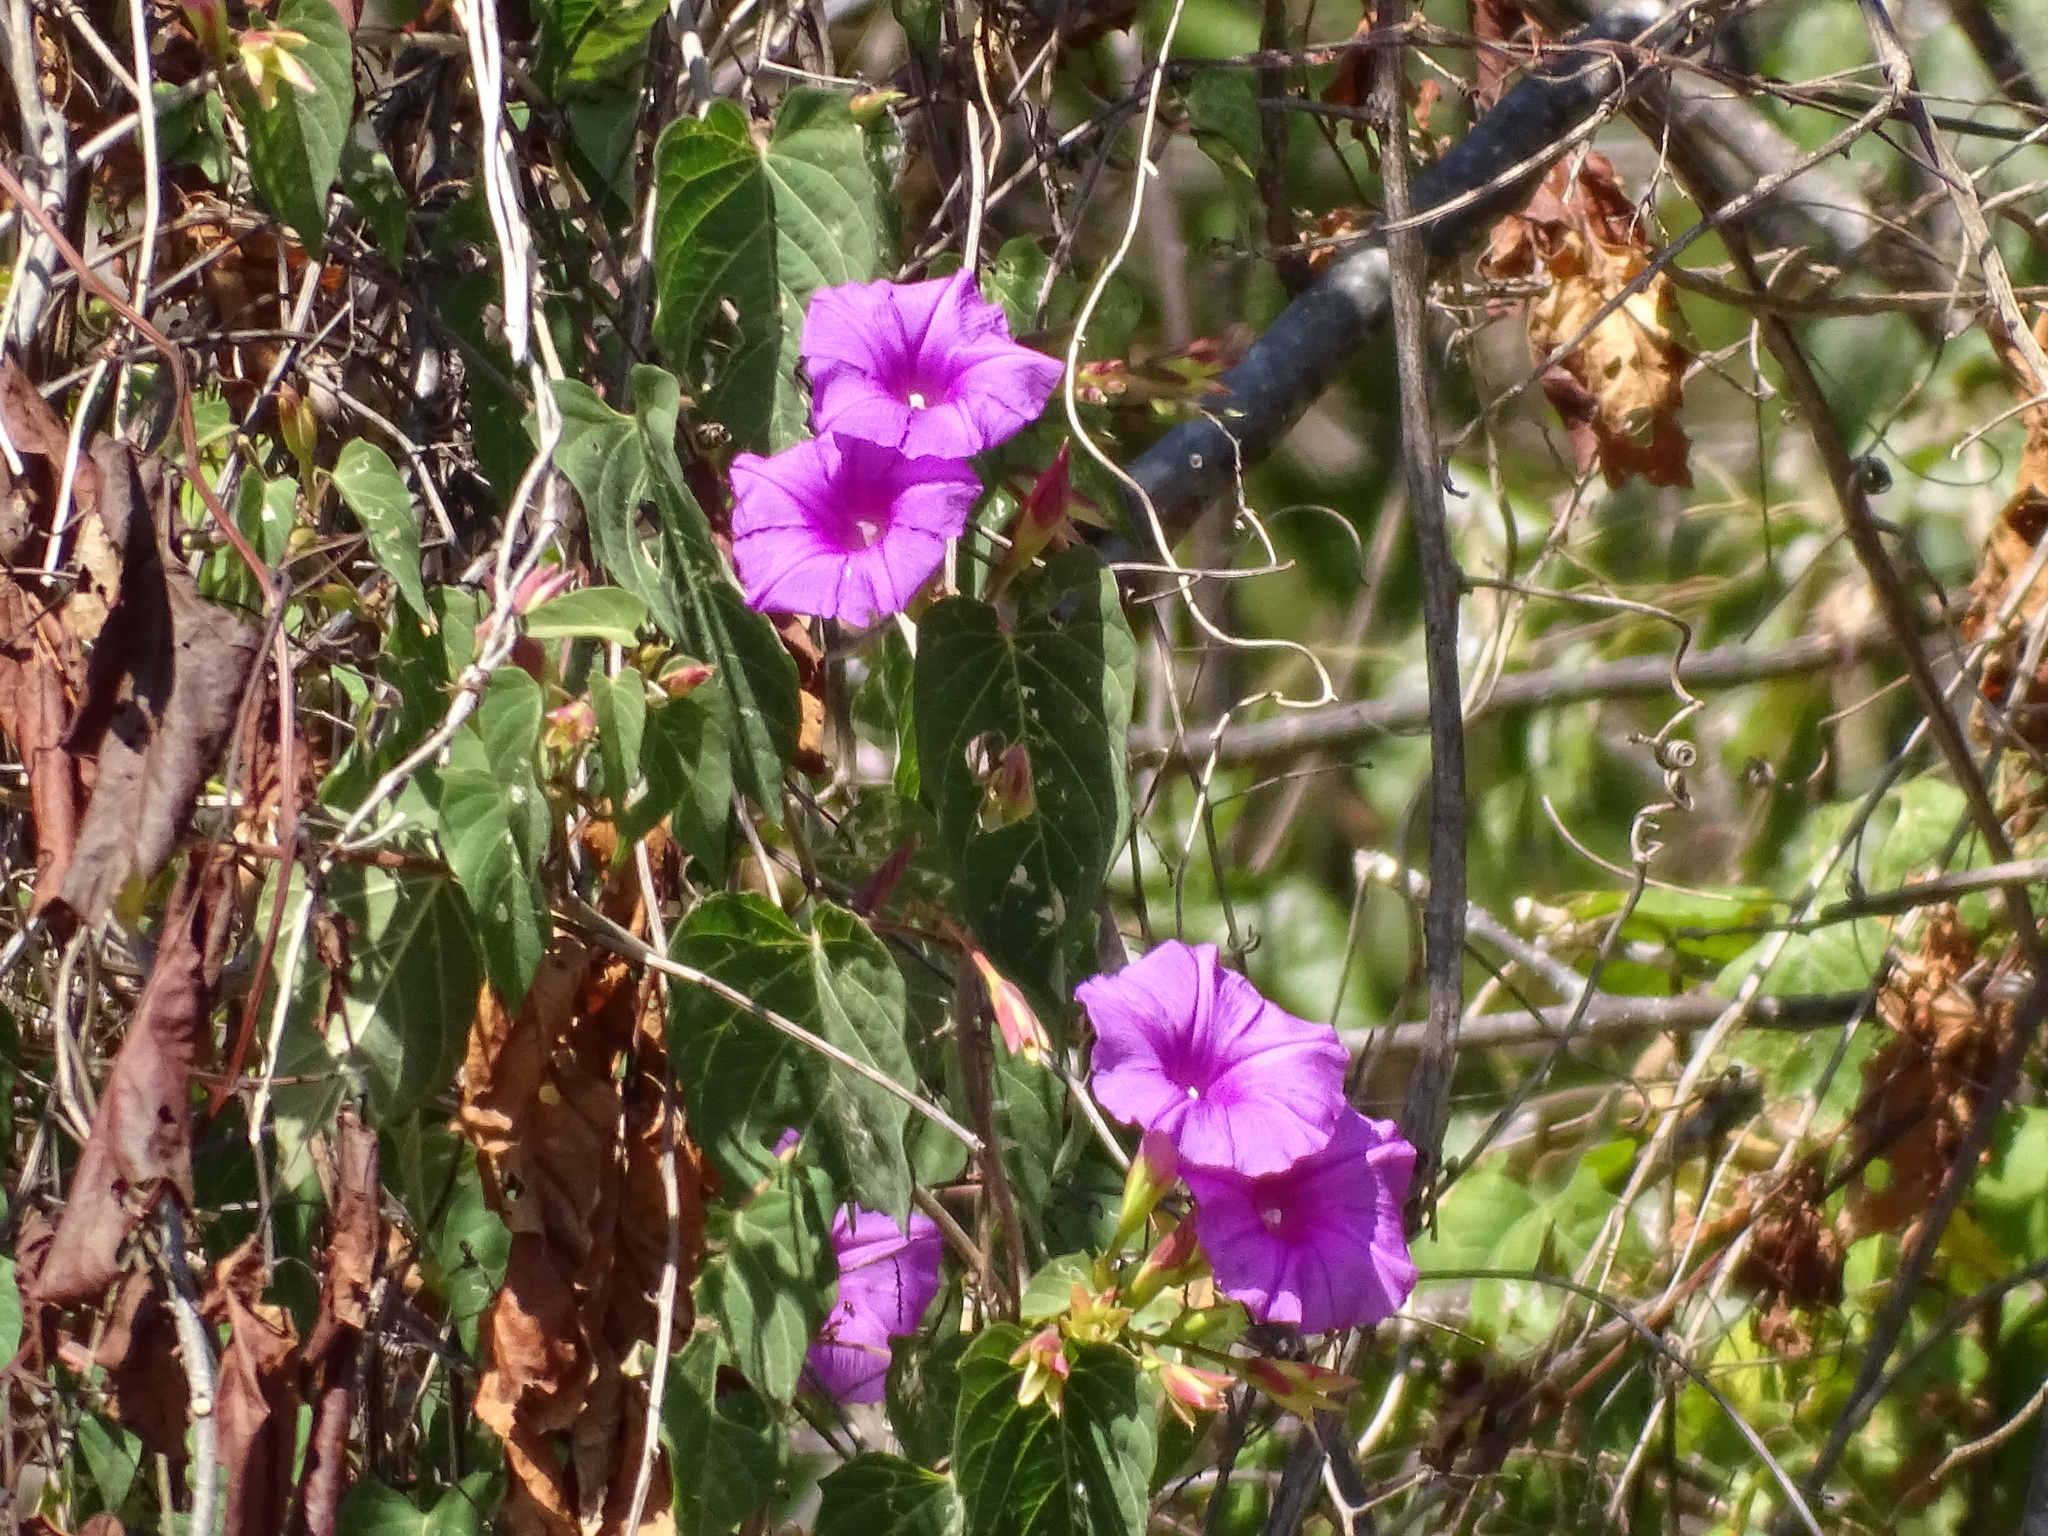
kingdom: Plantae
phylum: Tracheophyta
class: Magnoliopsida
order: Solanales
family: Convolvulaceae
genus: Ipomoea
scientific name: Ipomoea bernoulliana
